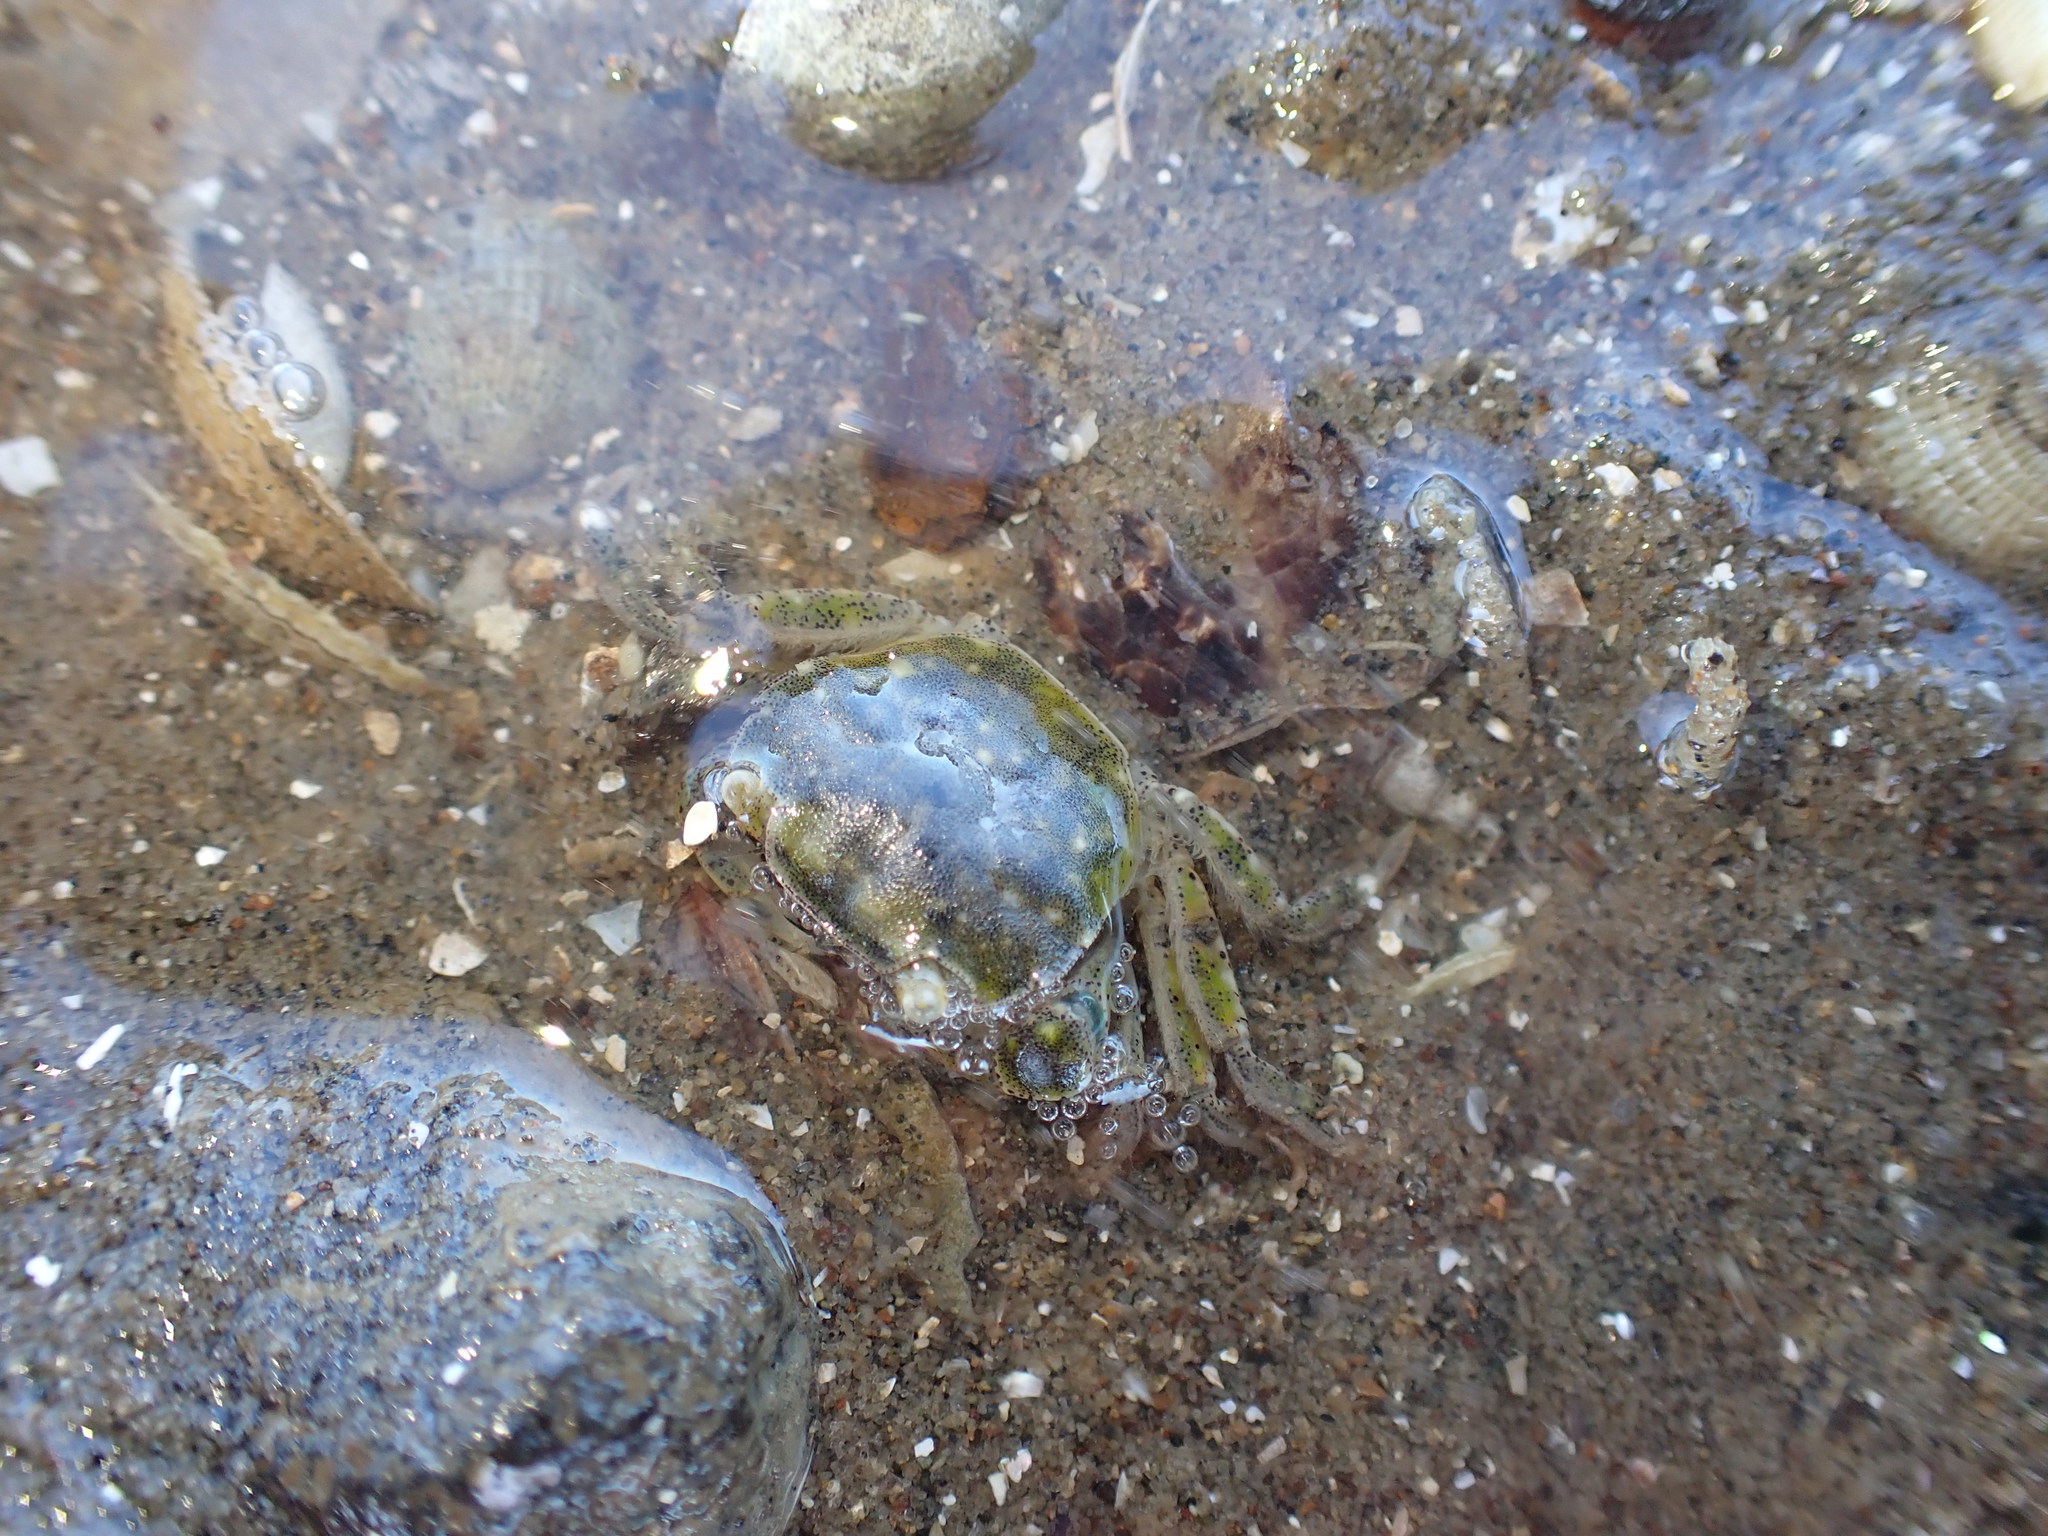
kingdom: Animalia
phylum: Arthropoda
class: Malacostraca
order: Decapoda
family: Varunidae
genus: Hemigrapsus
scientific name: Hemigrapsus crenulatus
